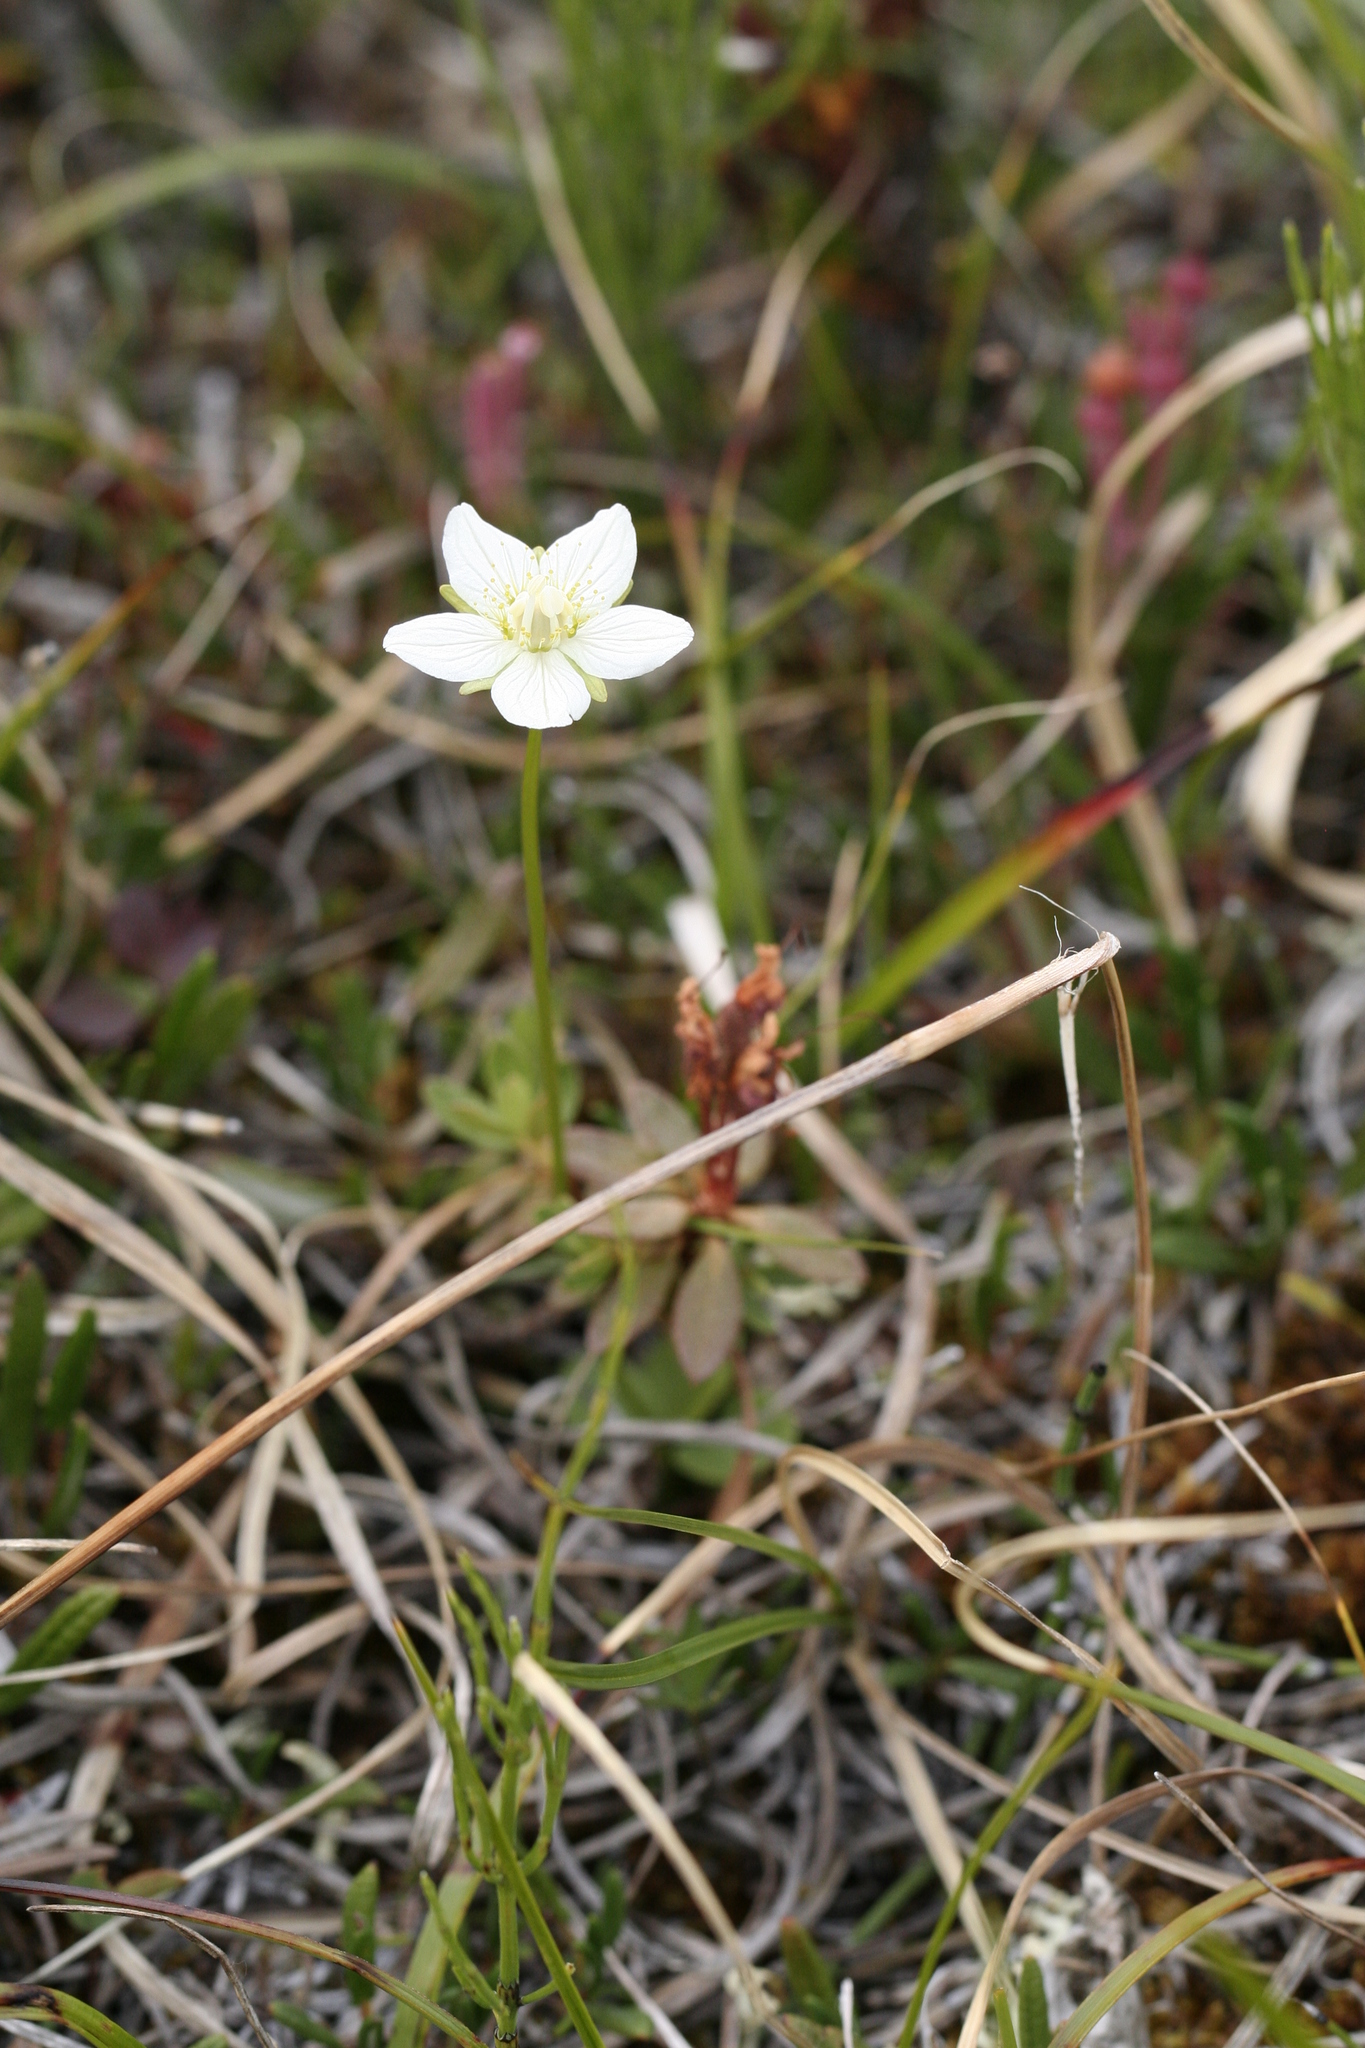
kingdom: Plantae
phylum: Tracheophyta
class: Magnoliopsida
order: Celastrales
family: Parnassiaceae
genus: Parnassia
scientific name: Parnassia palustris
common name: Grass-of-parnassus
